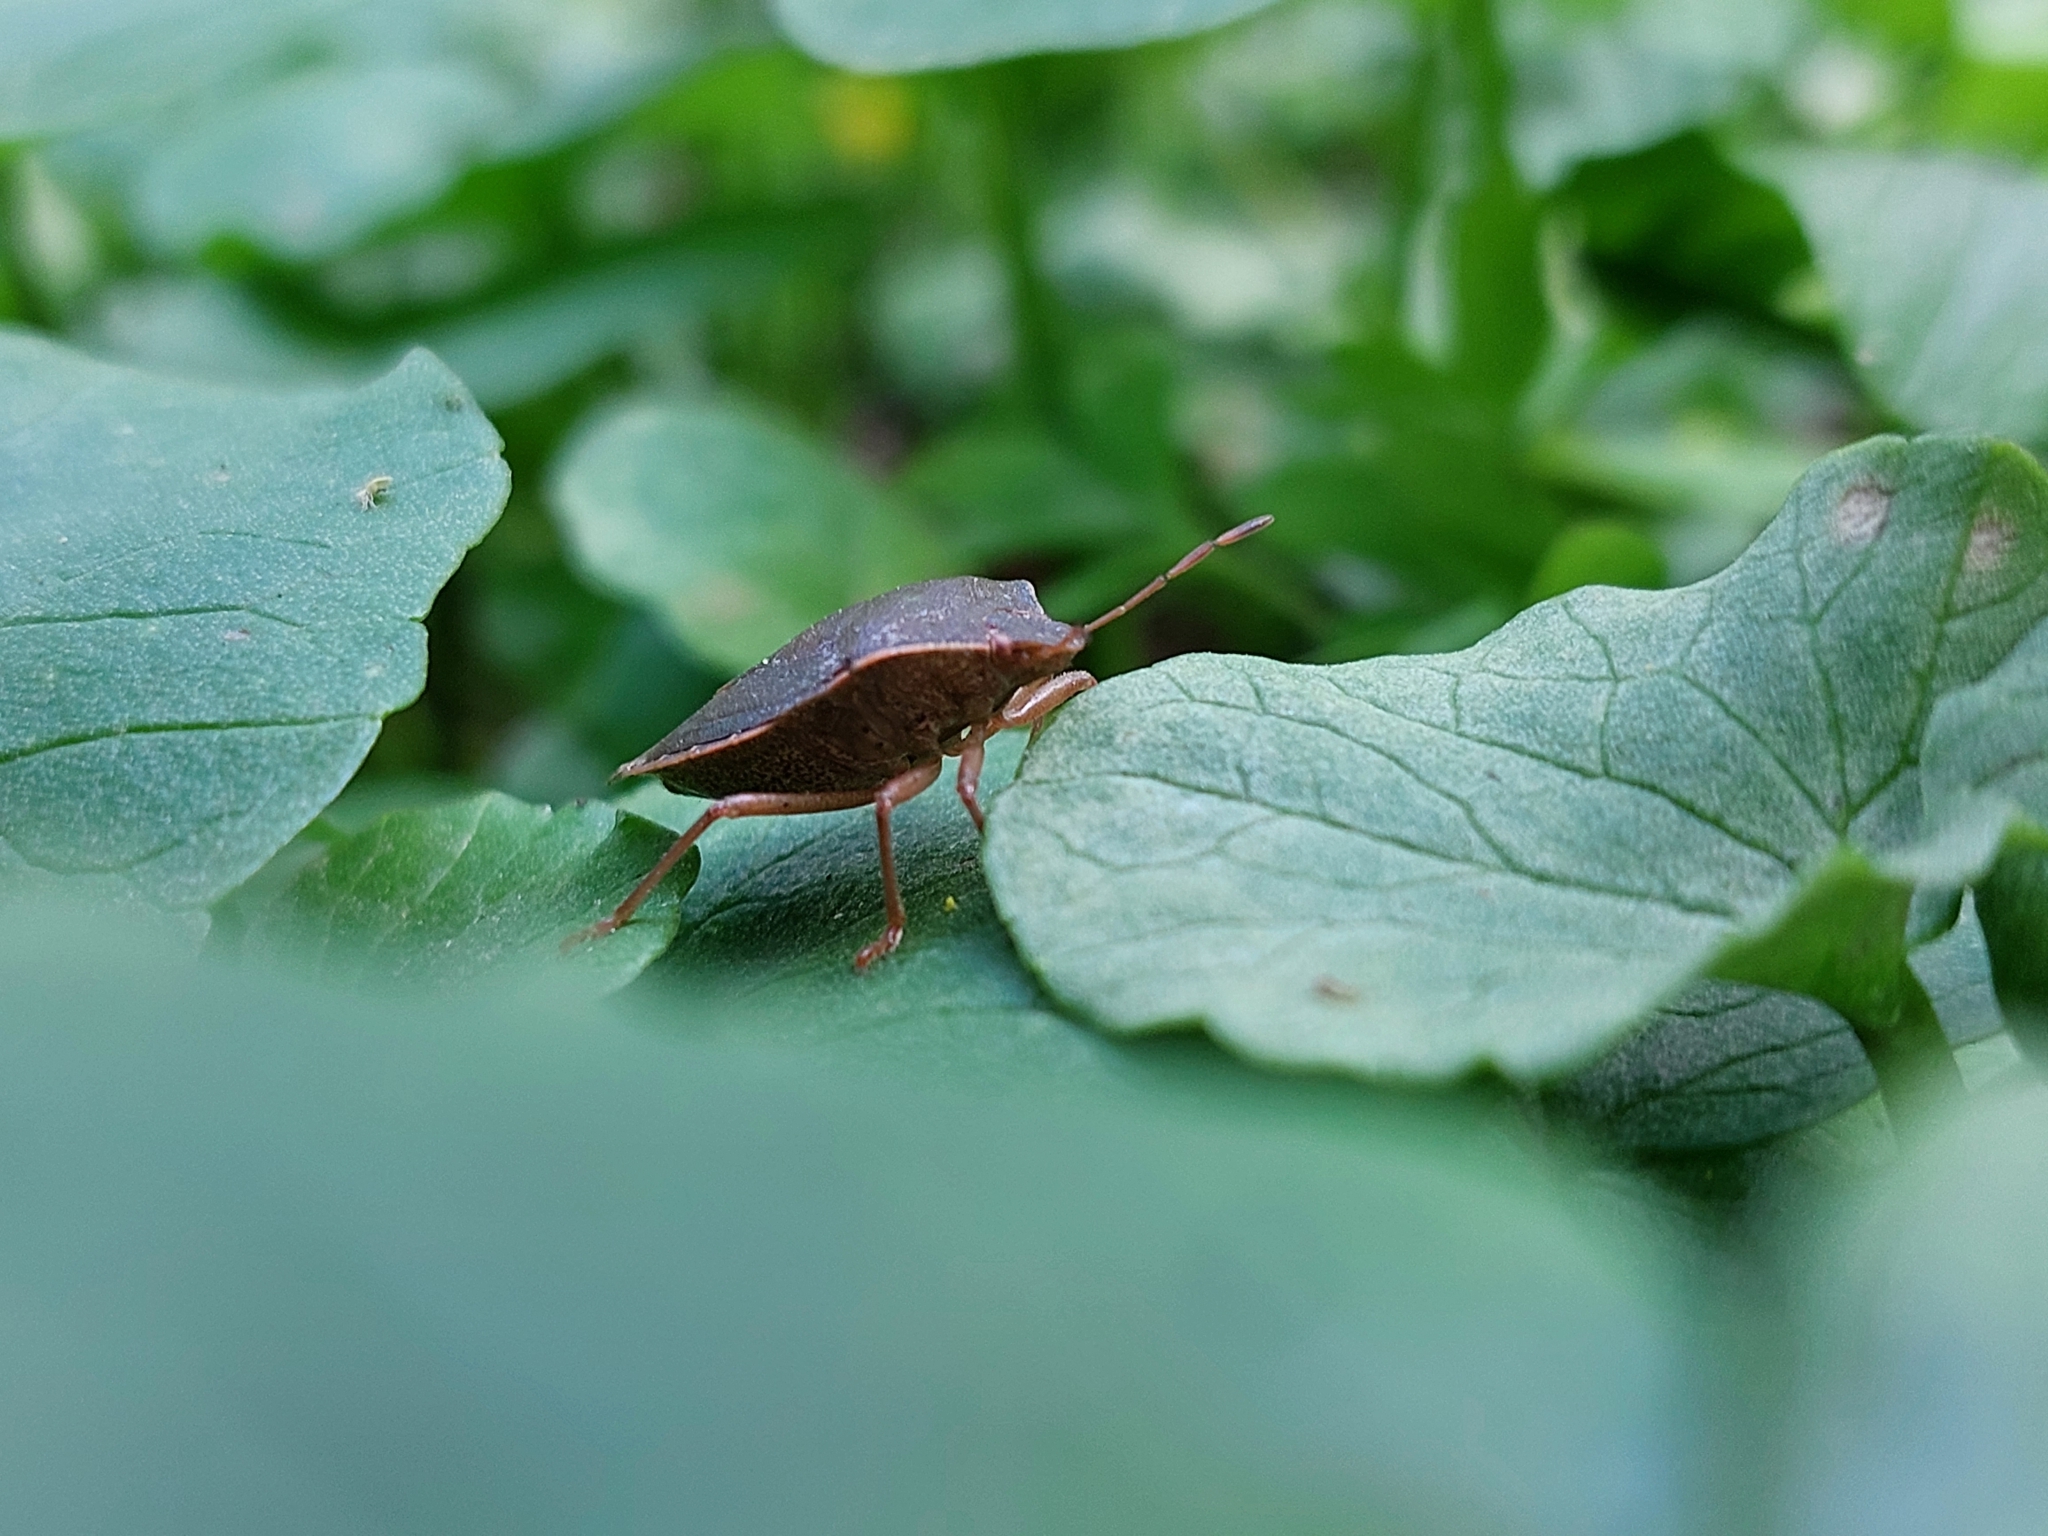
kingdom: Animalia
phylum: Arthropoda
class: Insecta
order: Hemiptera
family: Pentatomidae
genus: Palomena
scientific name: Palomena prasina
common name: Green shieldbug
